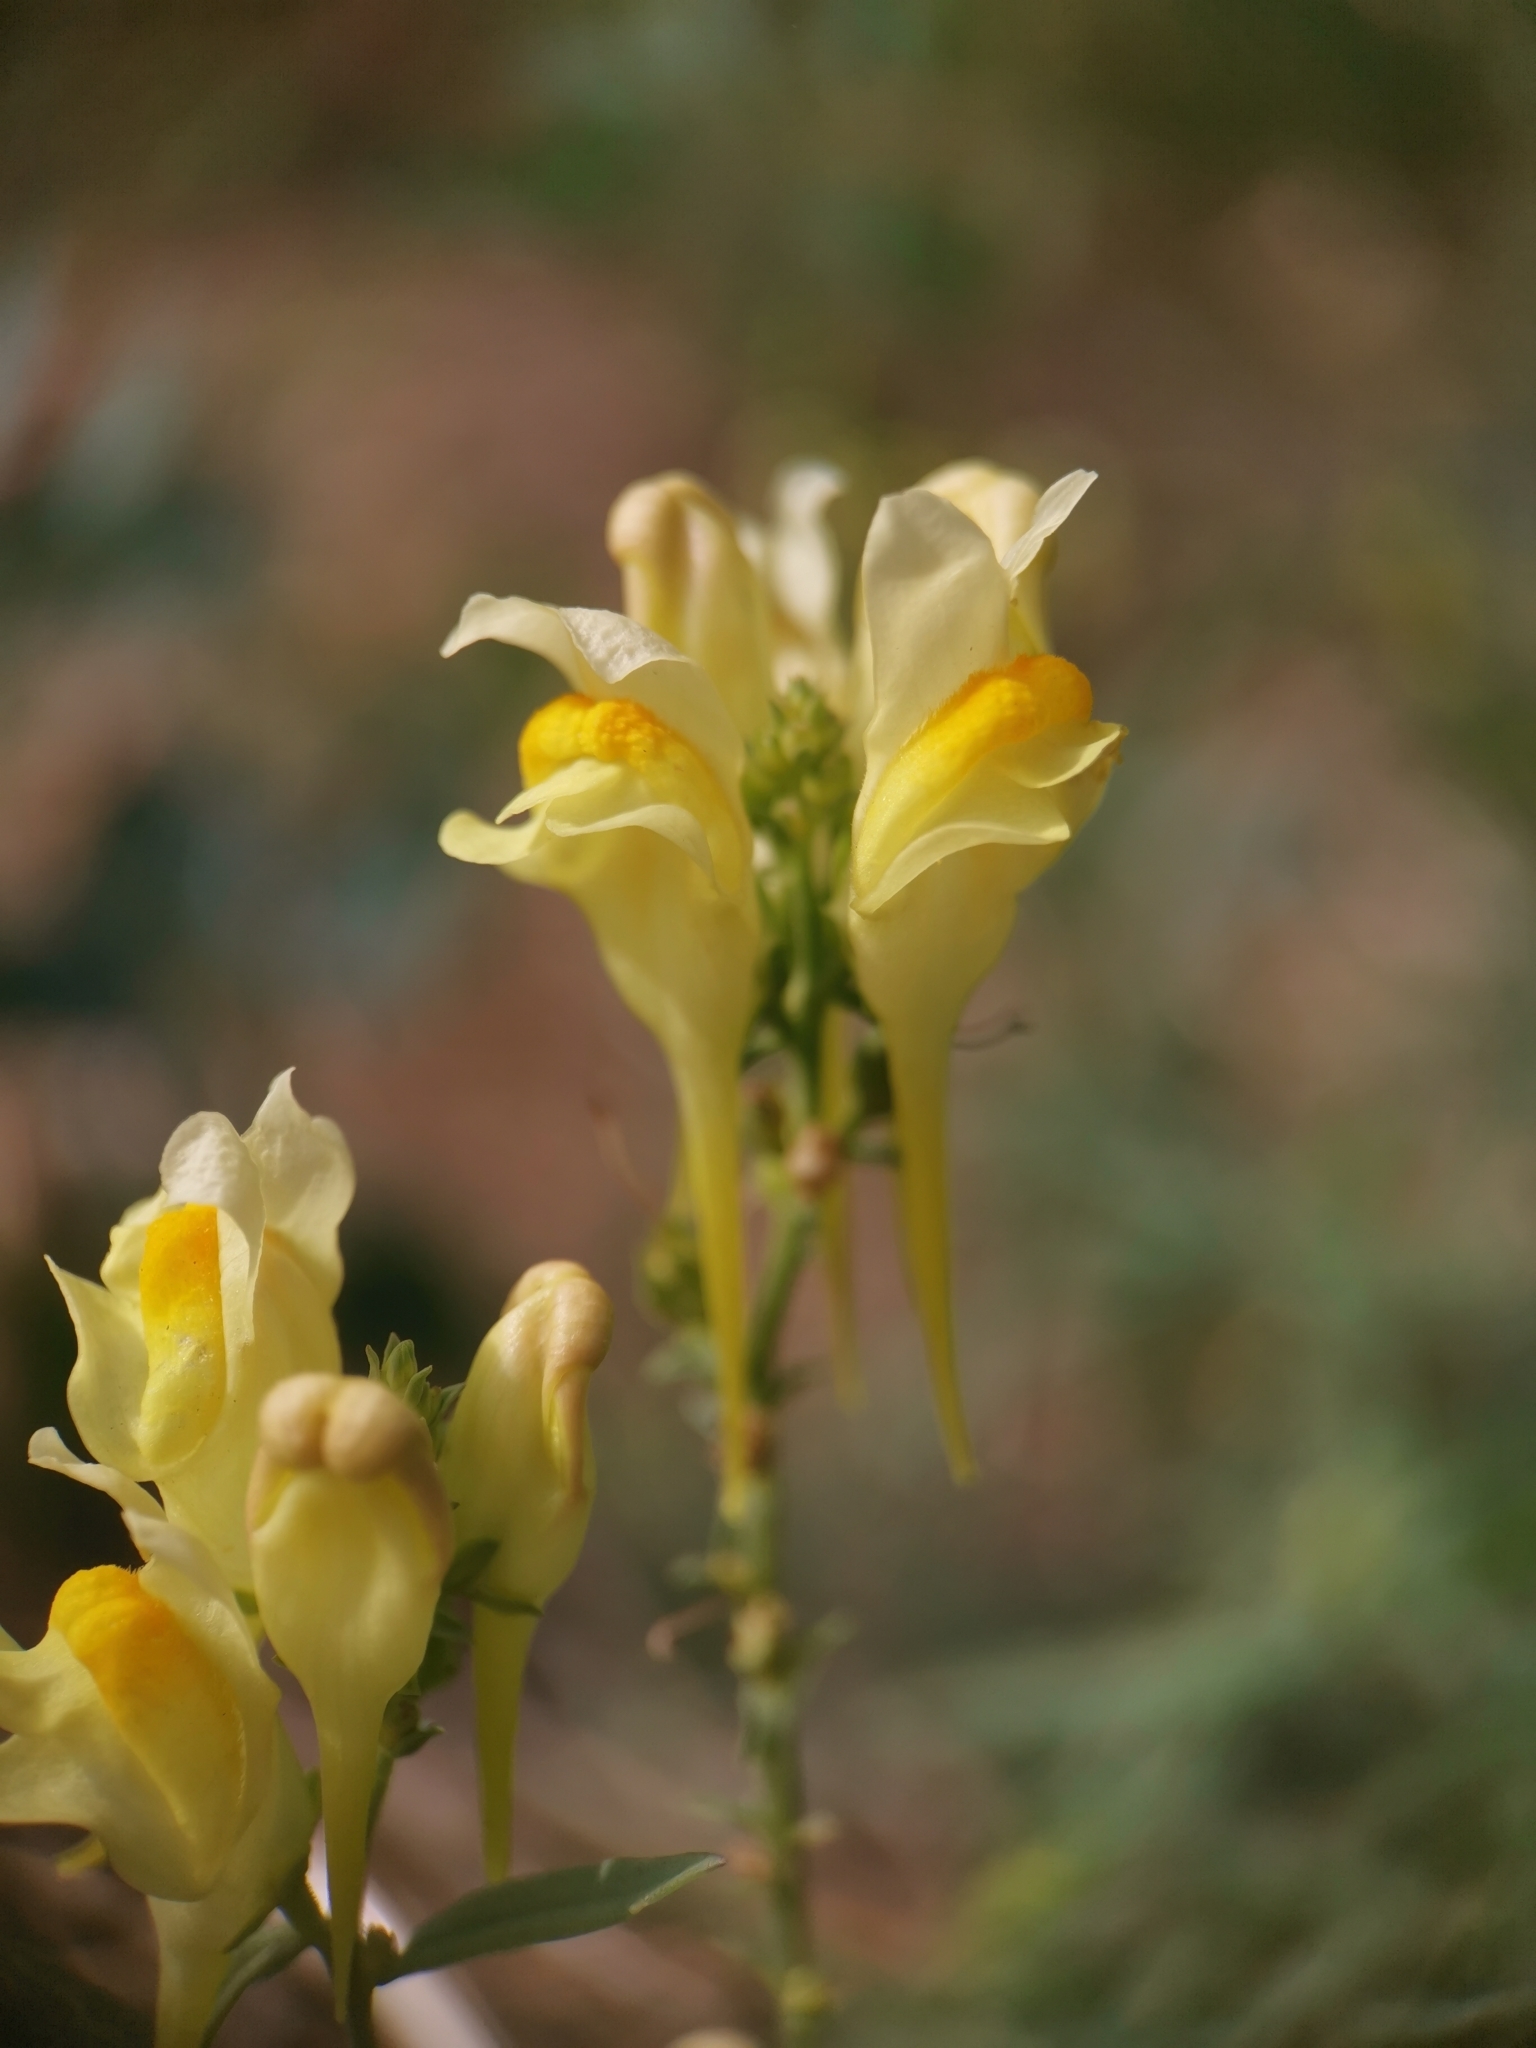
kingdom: Plantae
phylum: Tracheophyta
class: Magnoliopsida
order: Lamiales
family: Plantaginaceae
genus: Linaria
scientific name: Linaria vulgaris
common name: Butter and eggs
